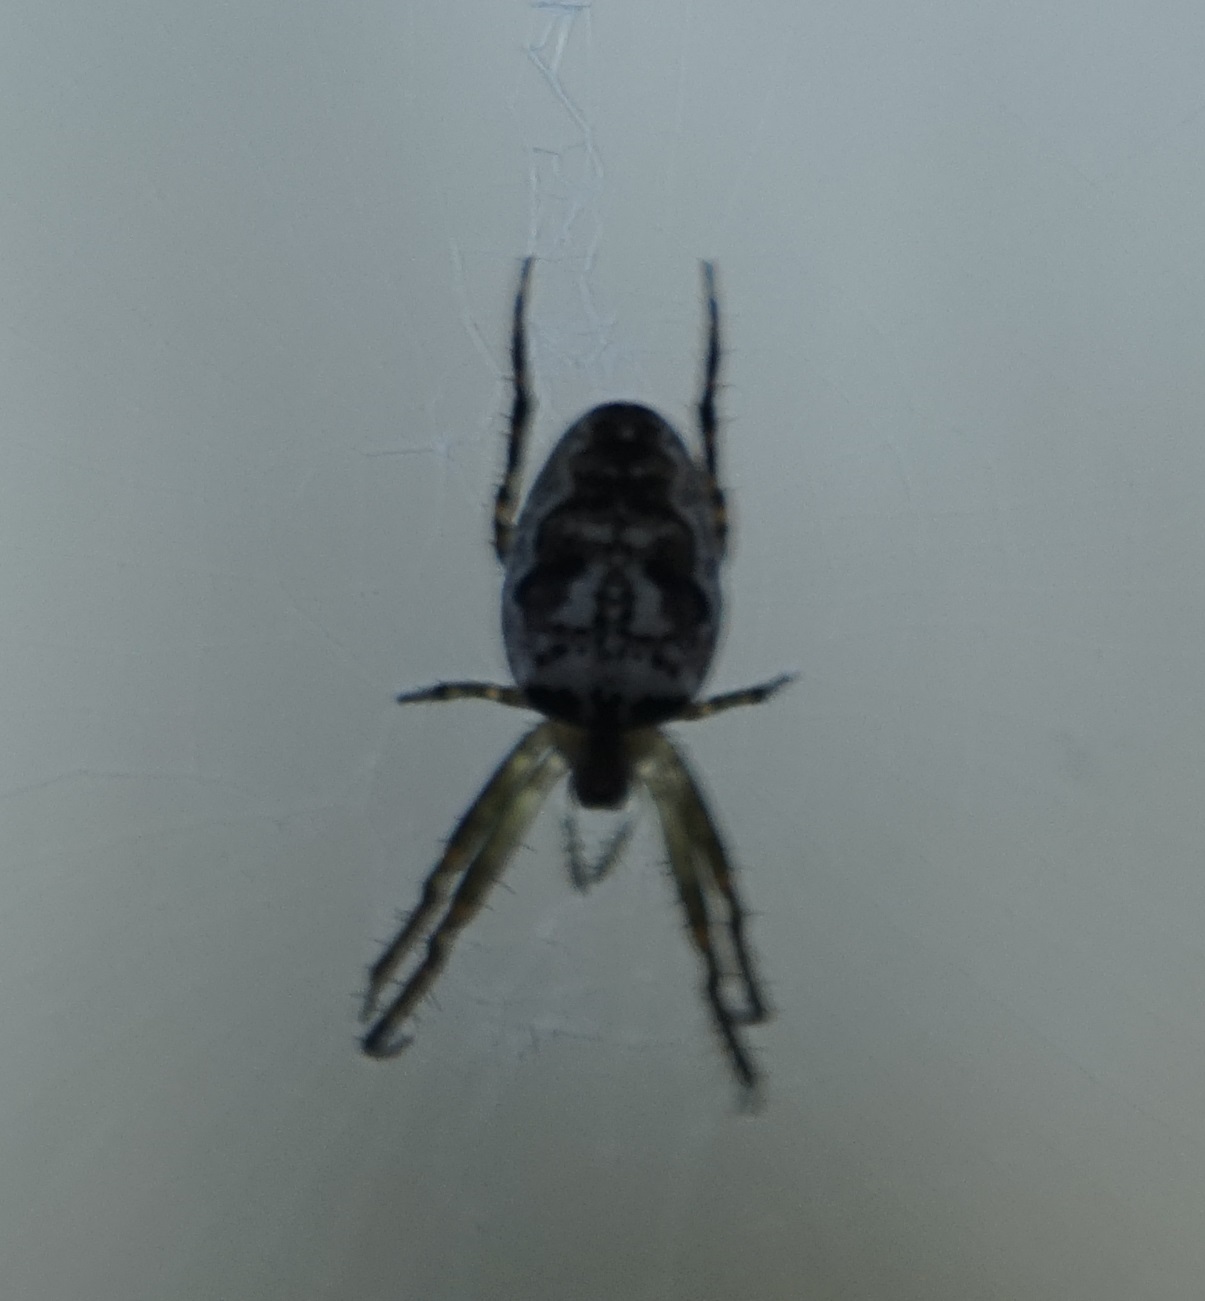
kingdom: Animalia
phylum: Arthropoda
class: Arachnida
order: Araneae
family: Araneidae
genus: Plebs
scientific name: Plebs eburnus
